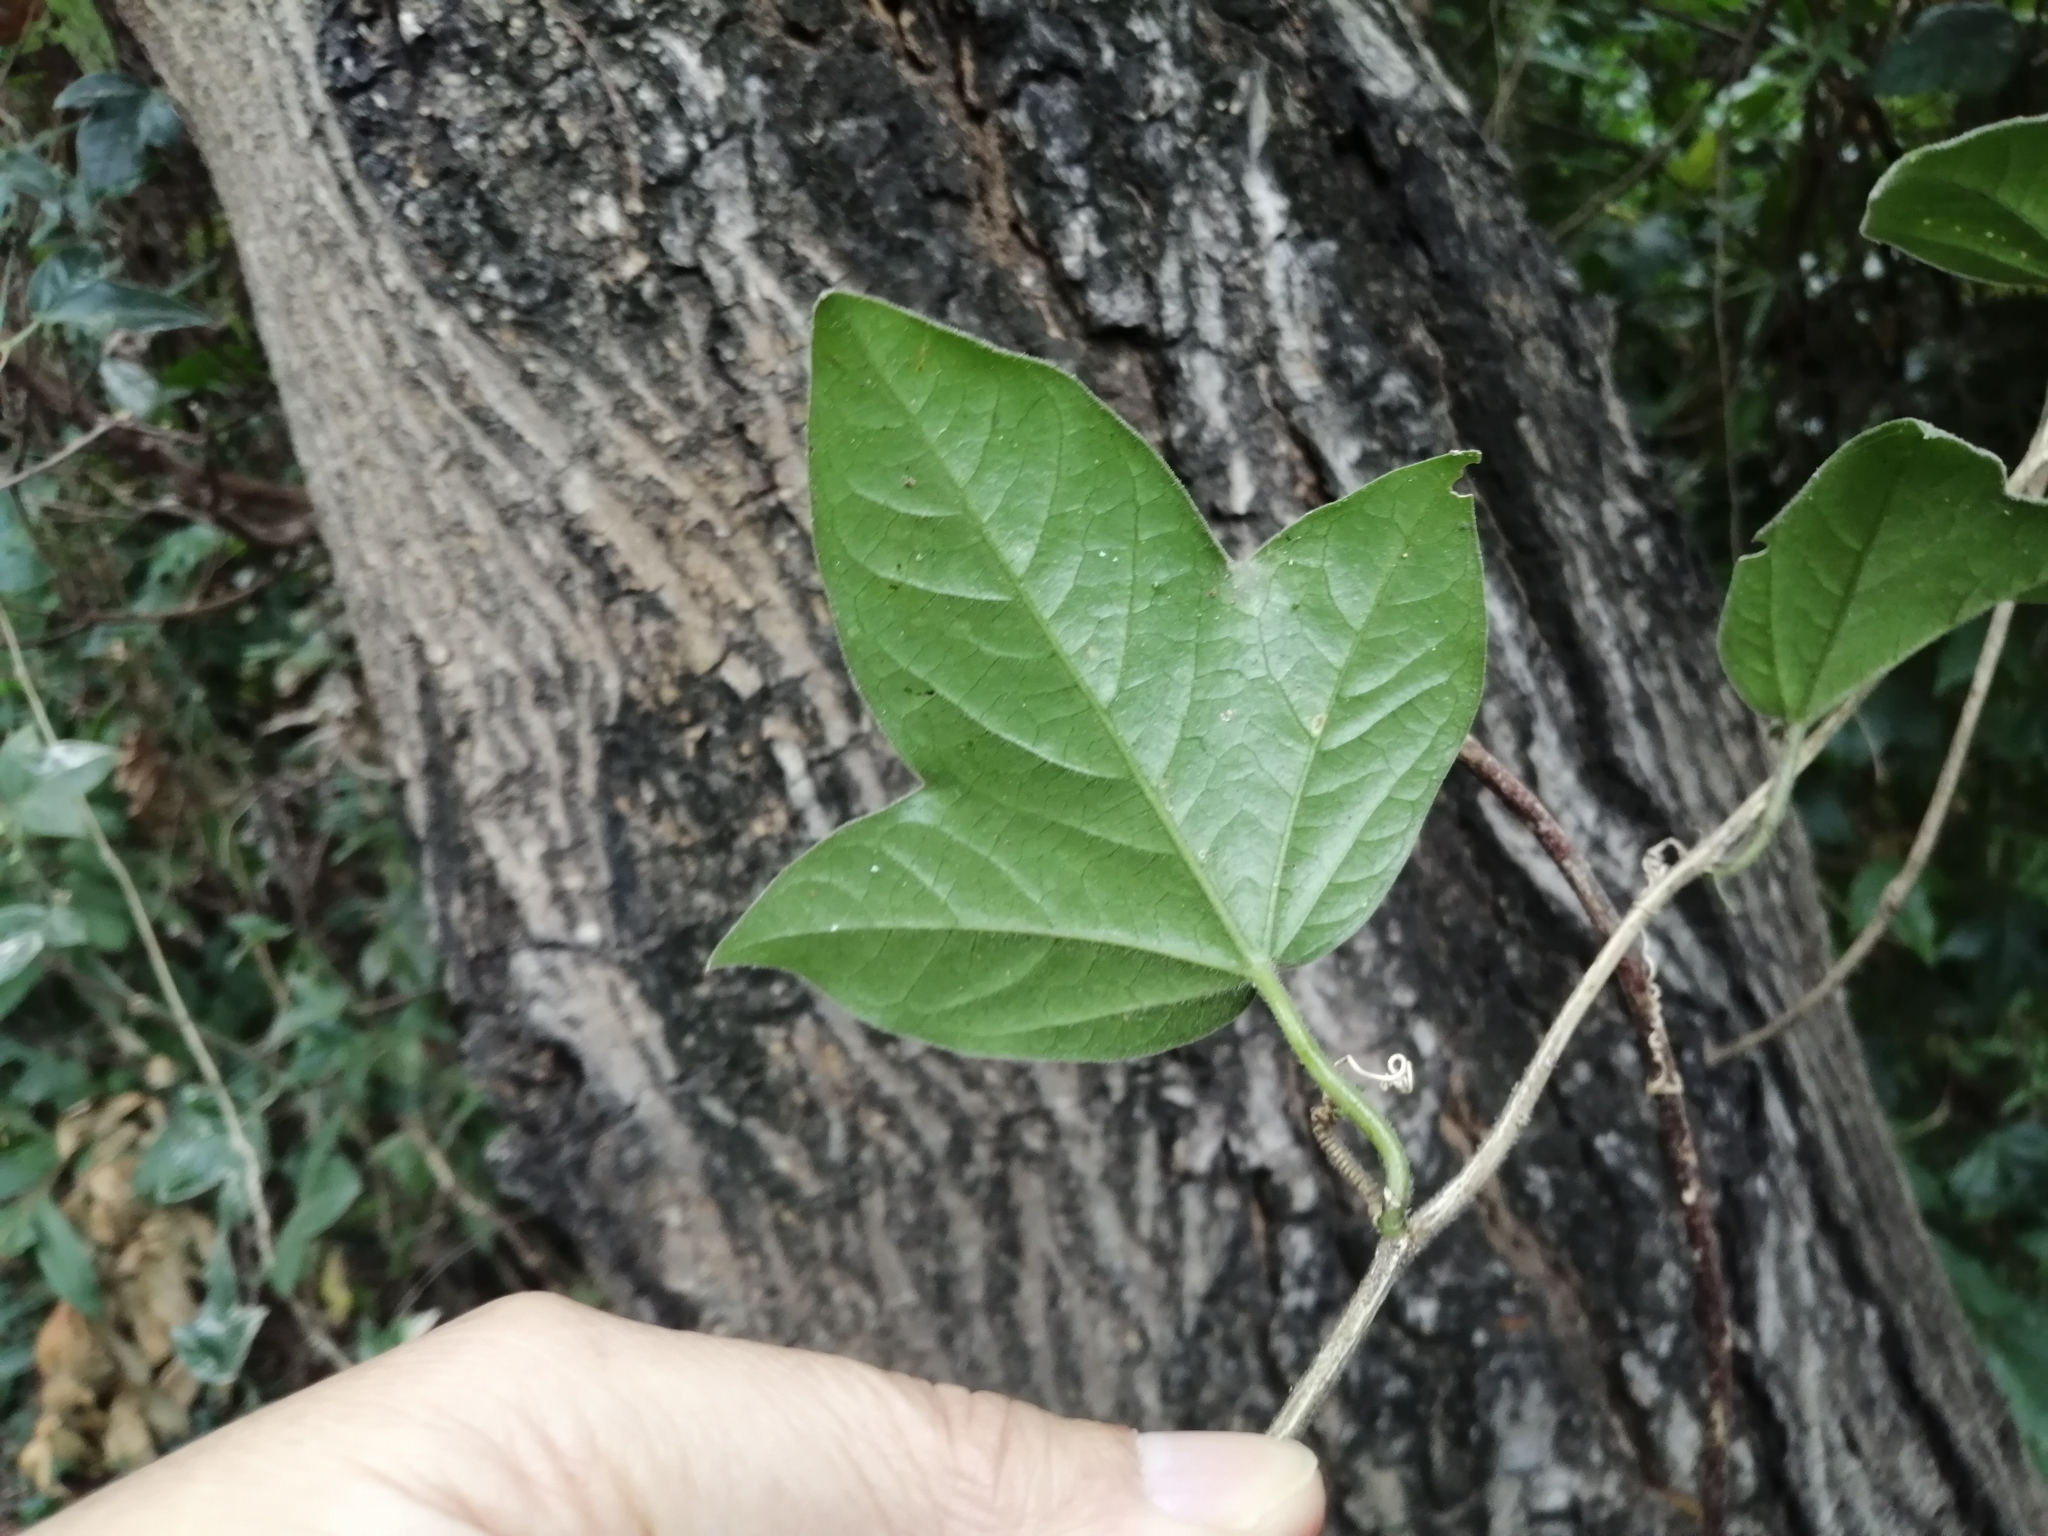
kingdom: Plantae
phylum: Tracheophyta
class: Magnoliopsida
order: Malpighiales
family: Passifloraceae
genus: Passiflora
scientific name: Passiflora suberosa
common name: Wild passionfruit
